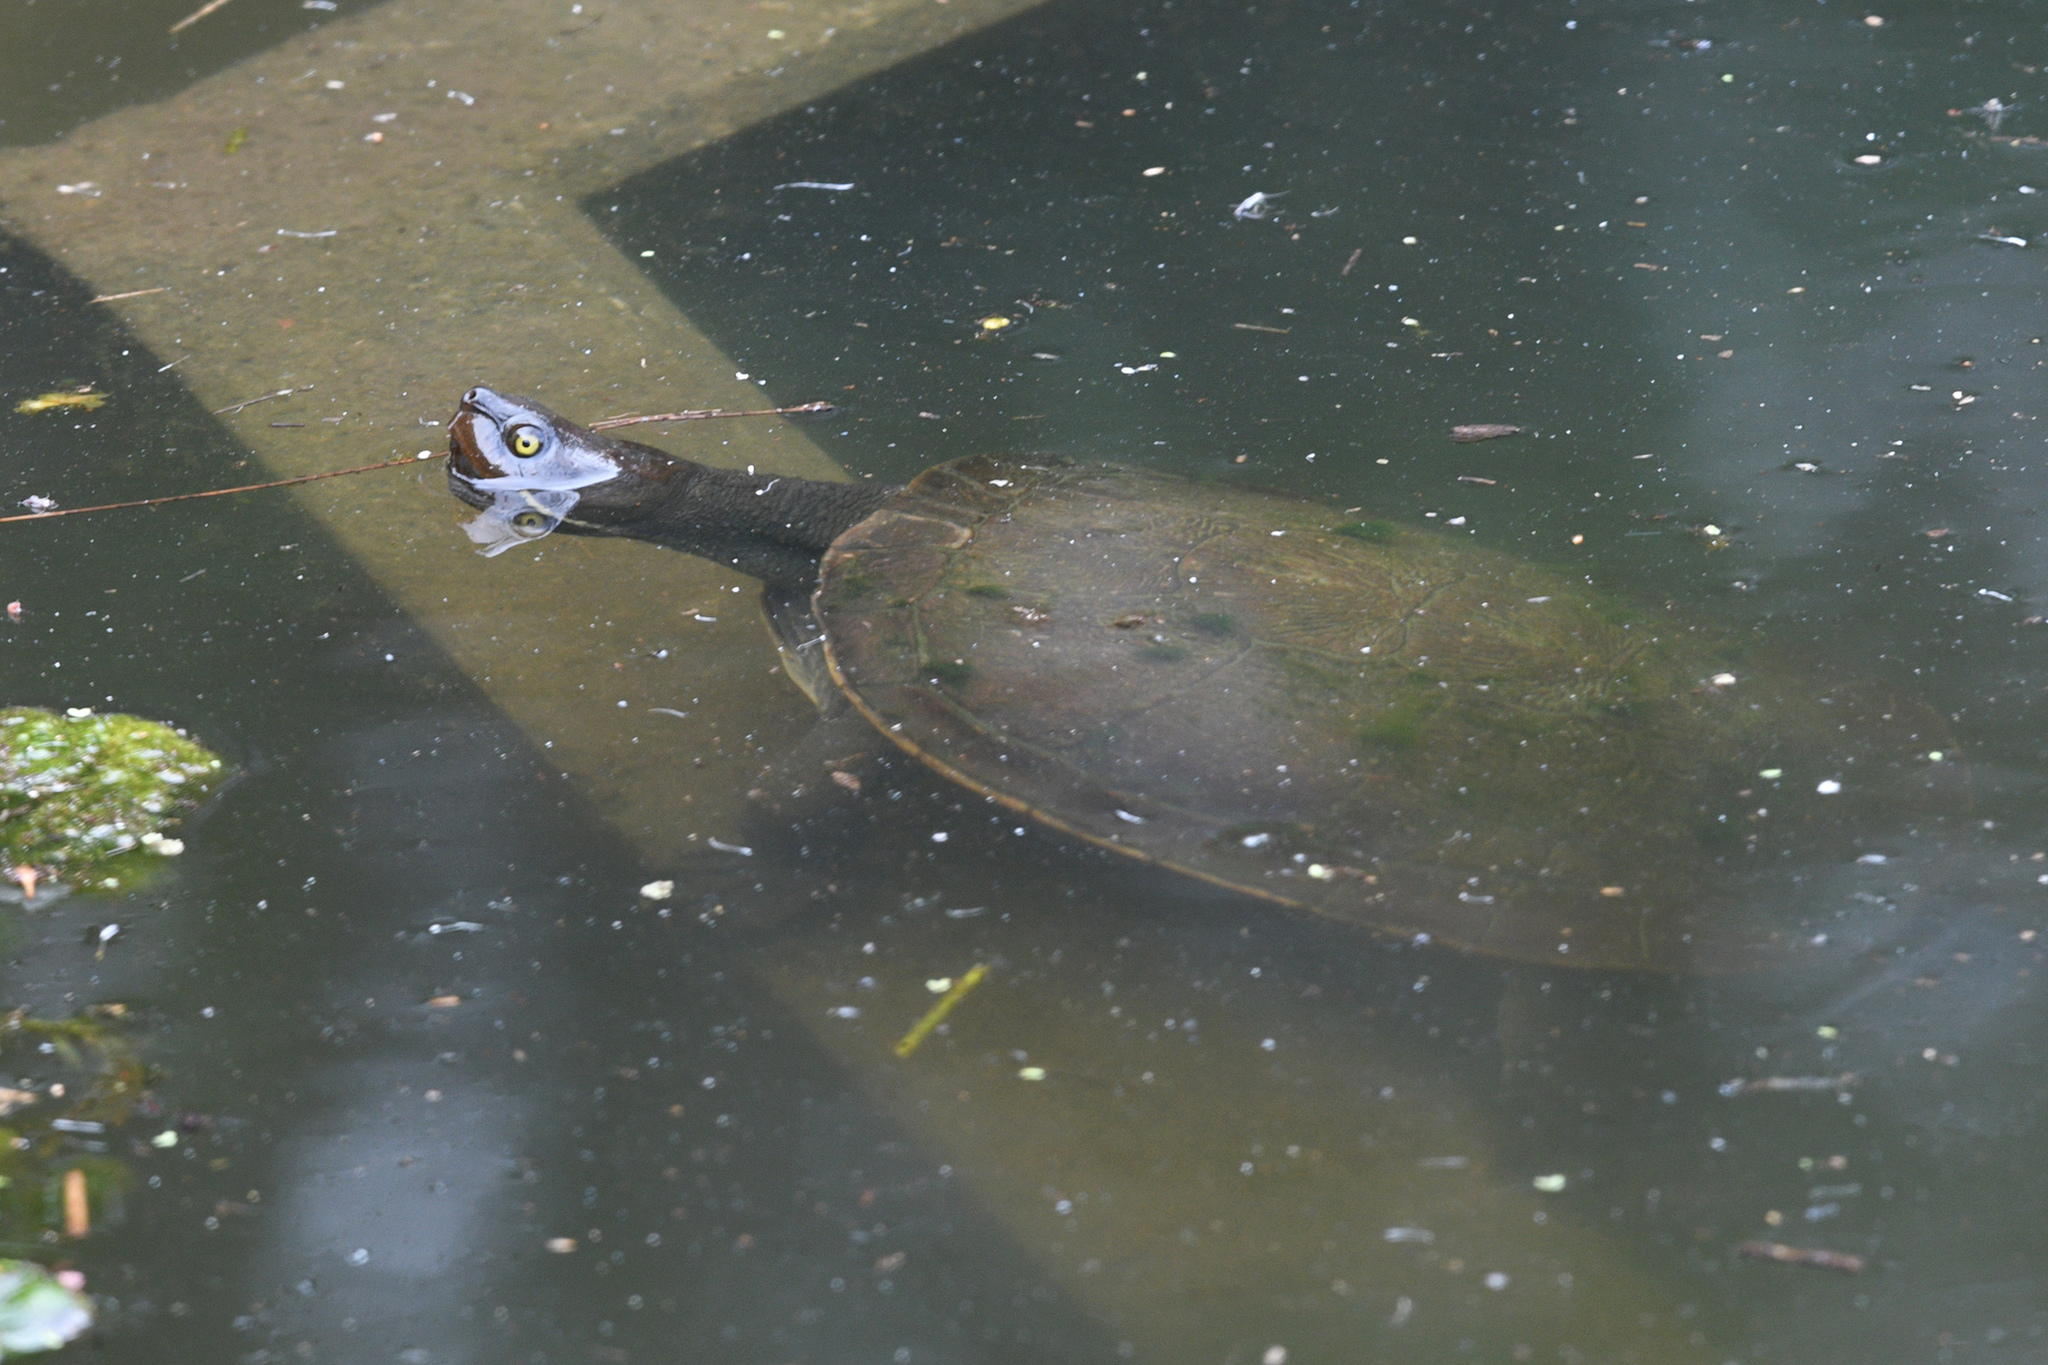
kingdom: Animalia
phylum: Chordata
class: Testudines
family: Chelidae
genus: Emydura
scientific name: Emydura macquarii
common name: Murray river turtle
